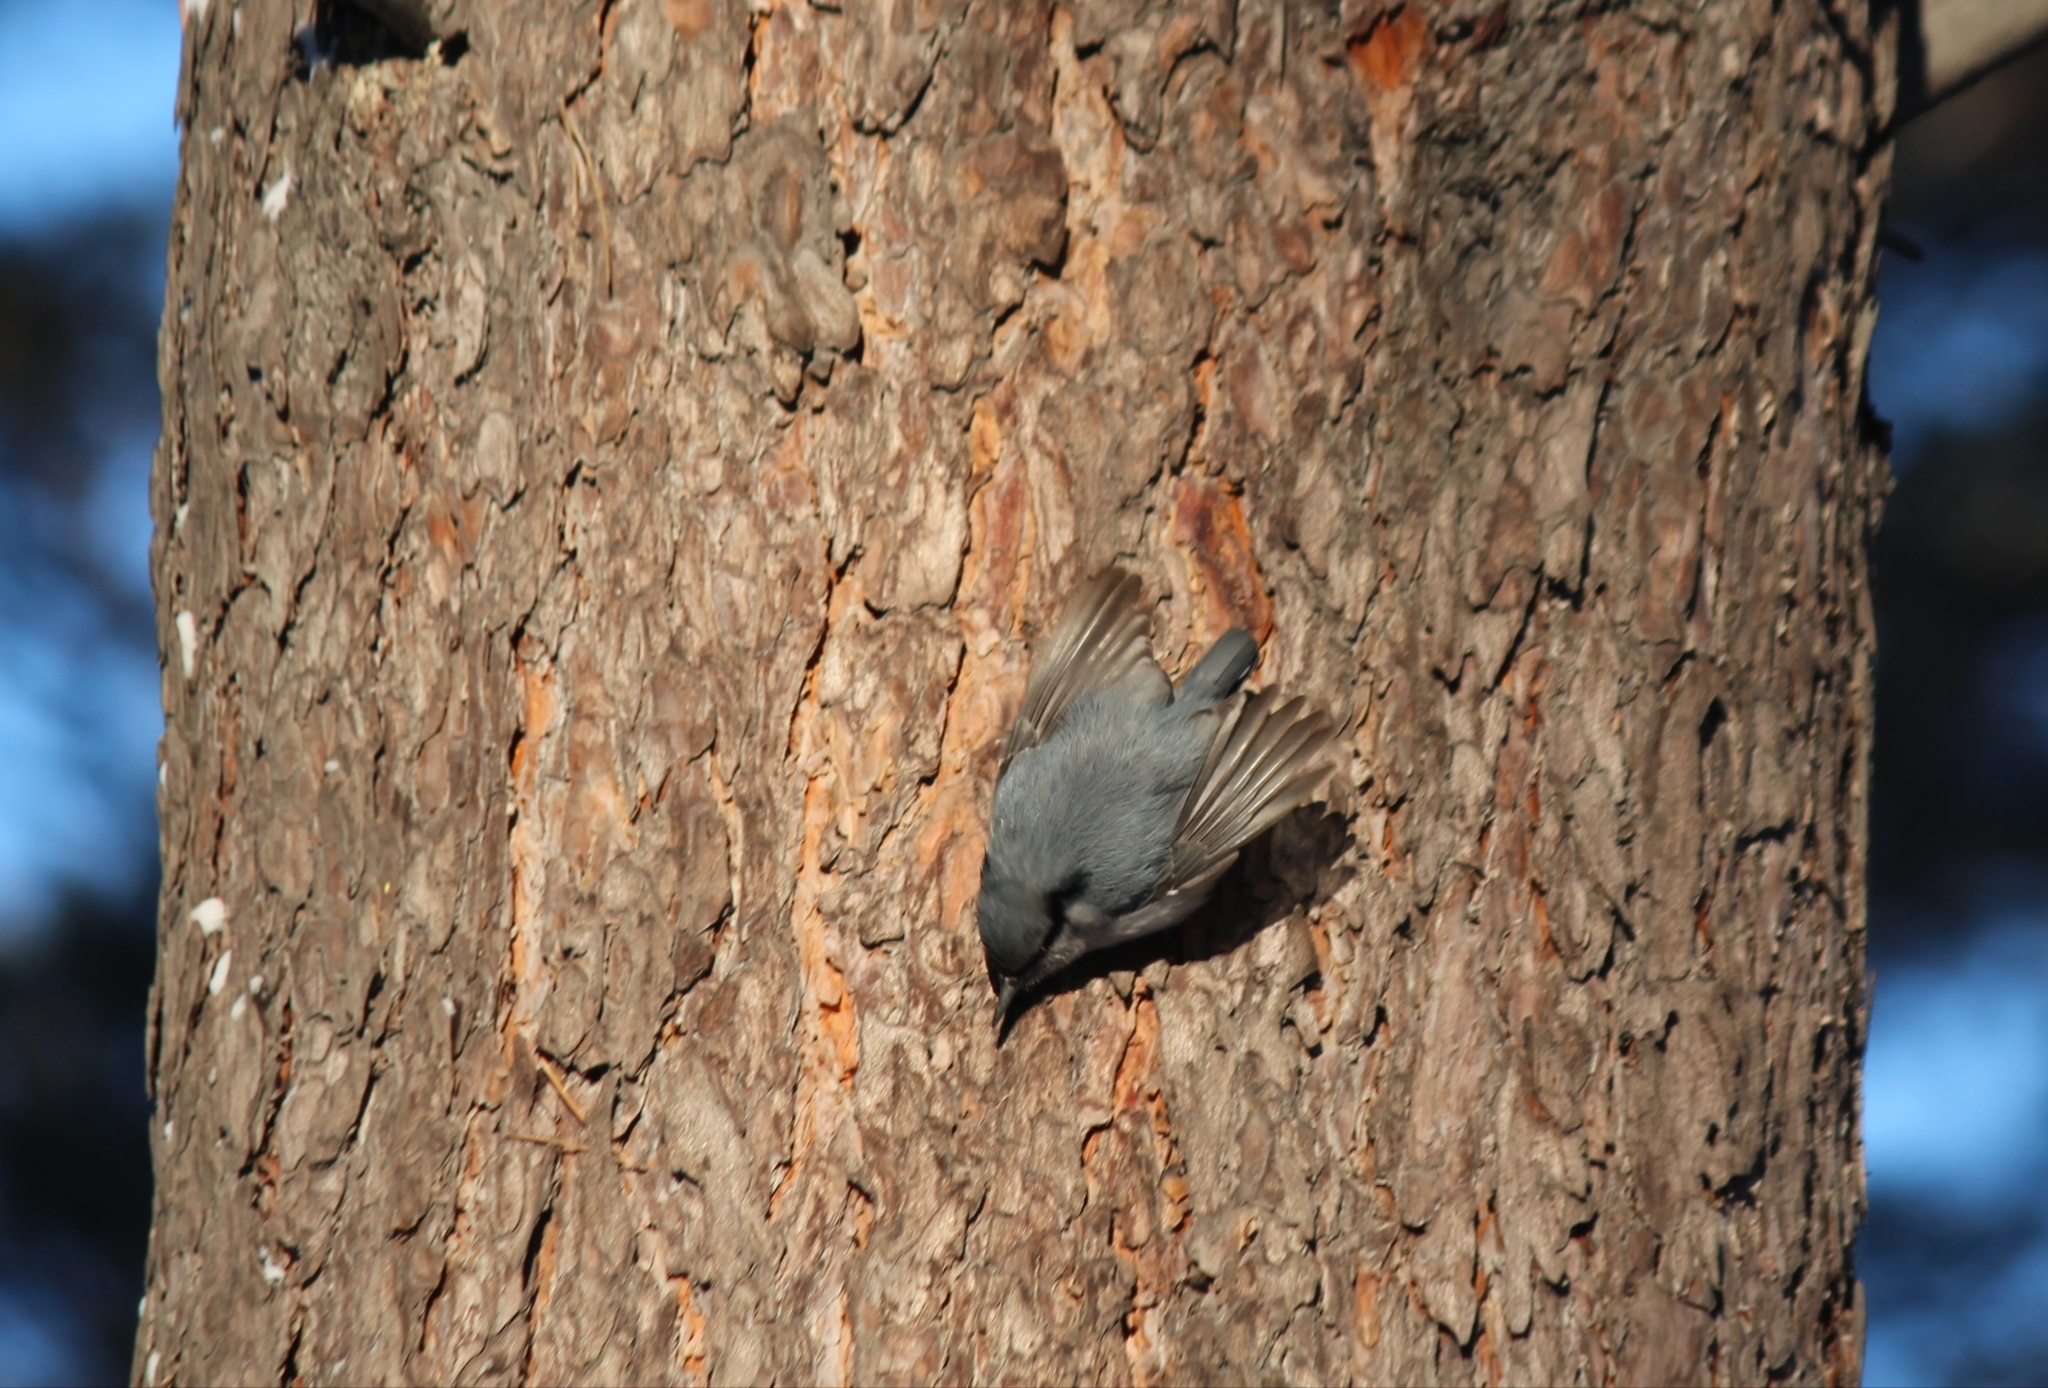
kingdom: Animalia
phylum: Chordata
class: Aves
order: Passeriformes
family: Sittidae
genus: Sitta
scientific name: Sitta europaea
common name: Eurasian nuthatch
